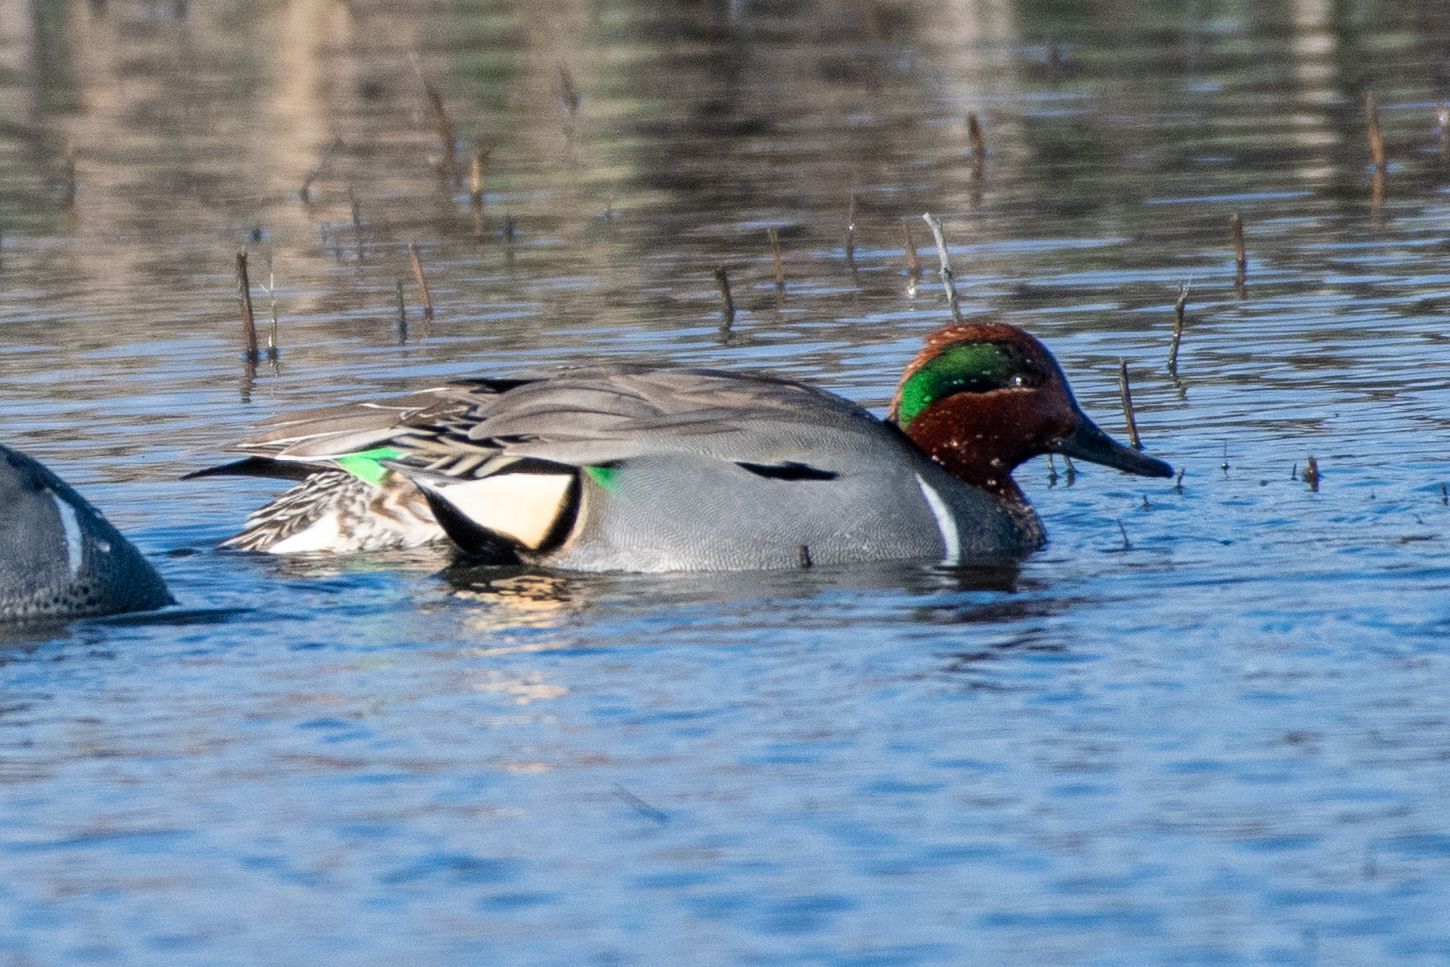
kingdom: Animalia
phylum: Chordata
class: Aves
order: Anseriformes
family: Anatidae
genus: Anas
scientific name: Anas crecca
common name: Eurasian teal
